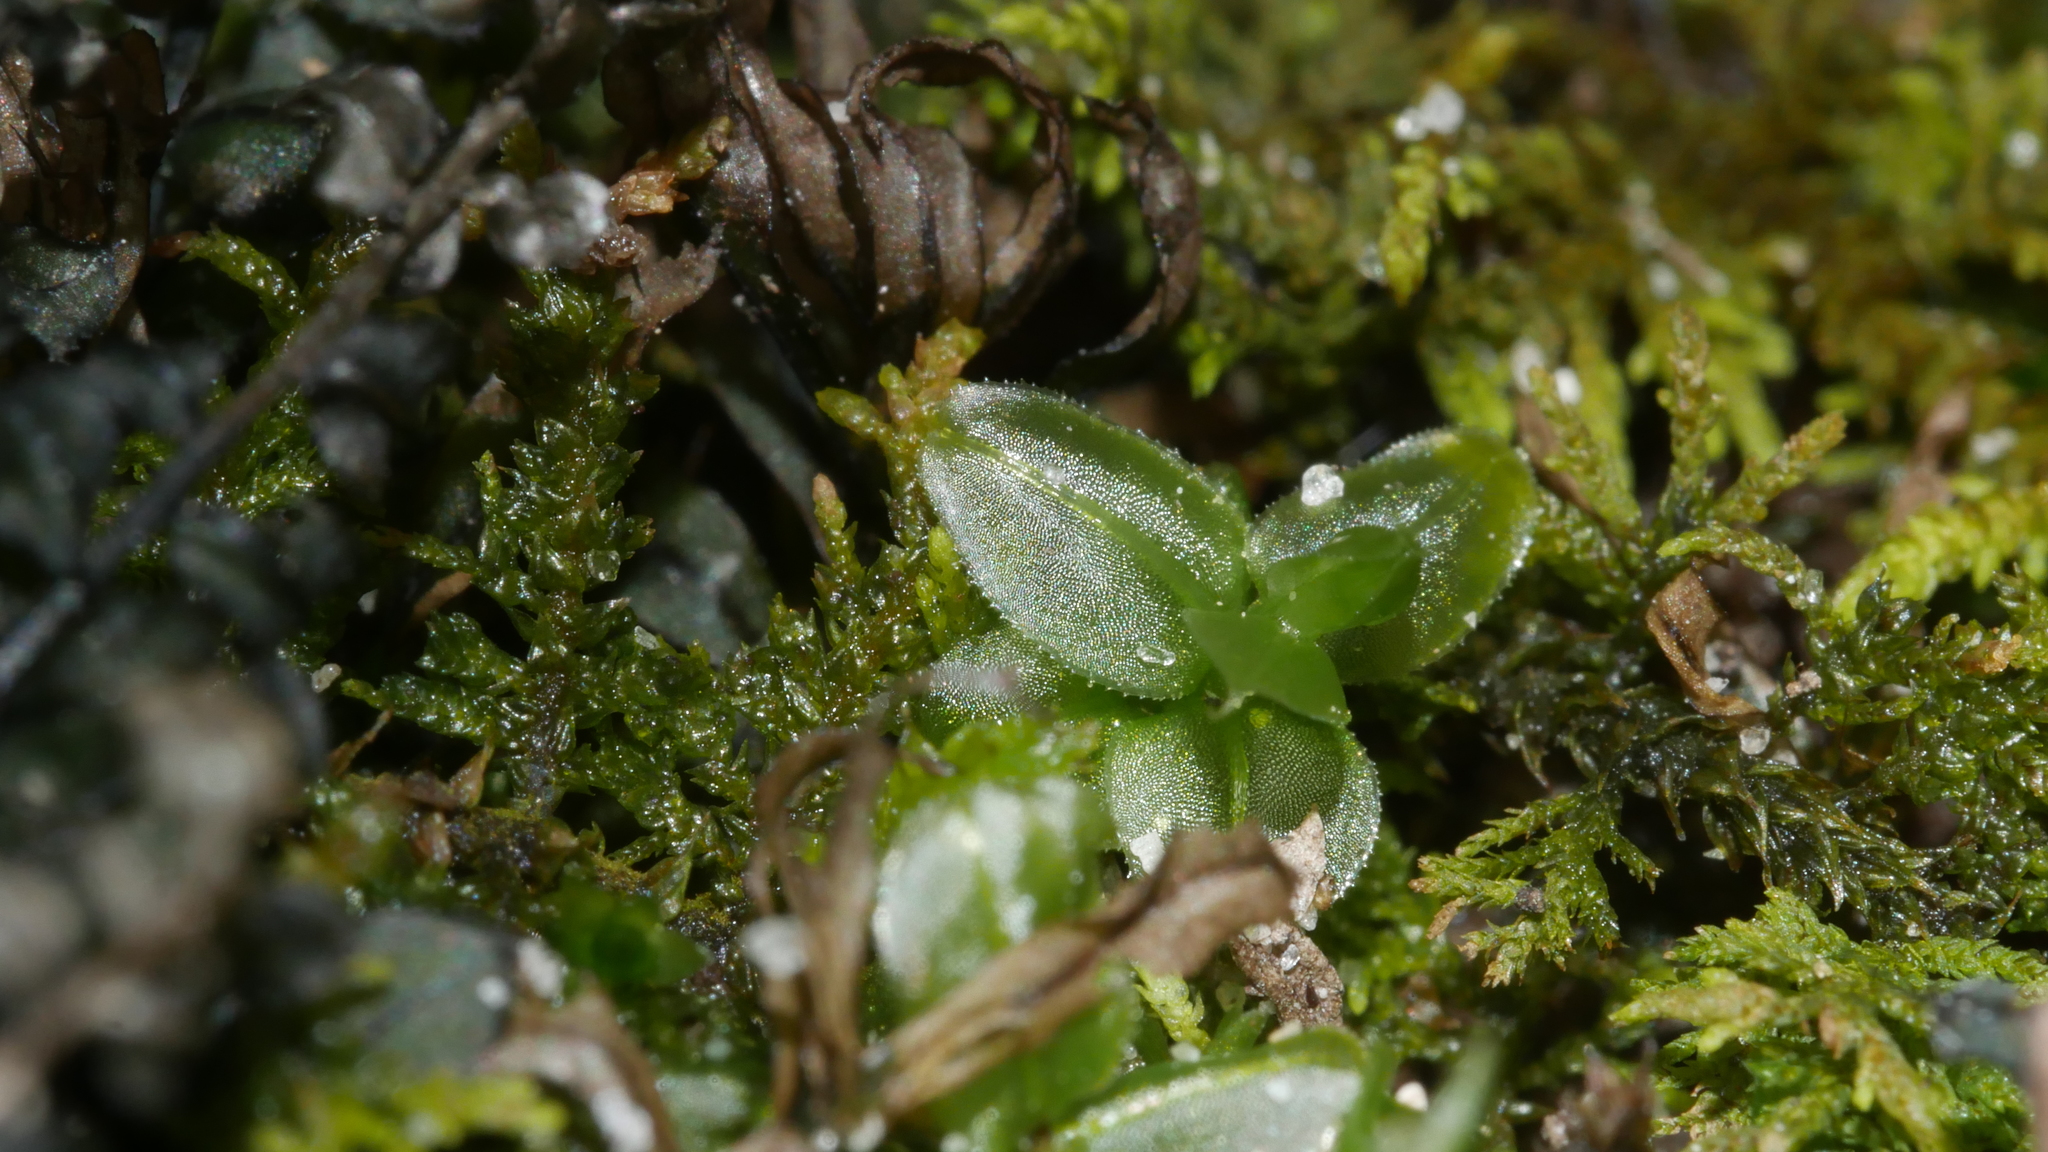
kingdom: Plantae
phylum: Bryophyta
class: Bryopsida
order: Bryales
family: Mniaceae
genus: Plagiomnium
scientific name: Plagiomnium
